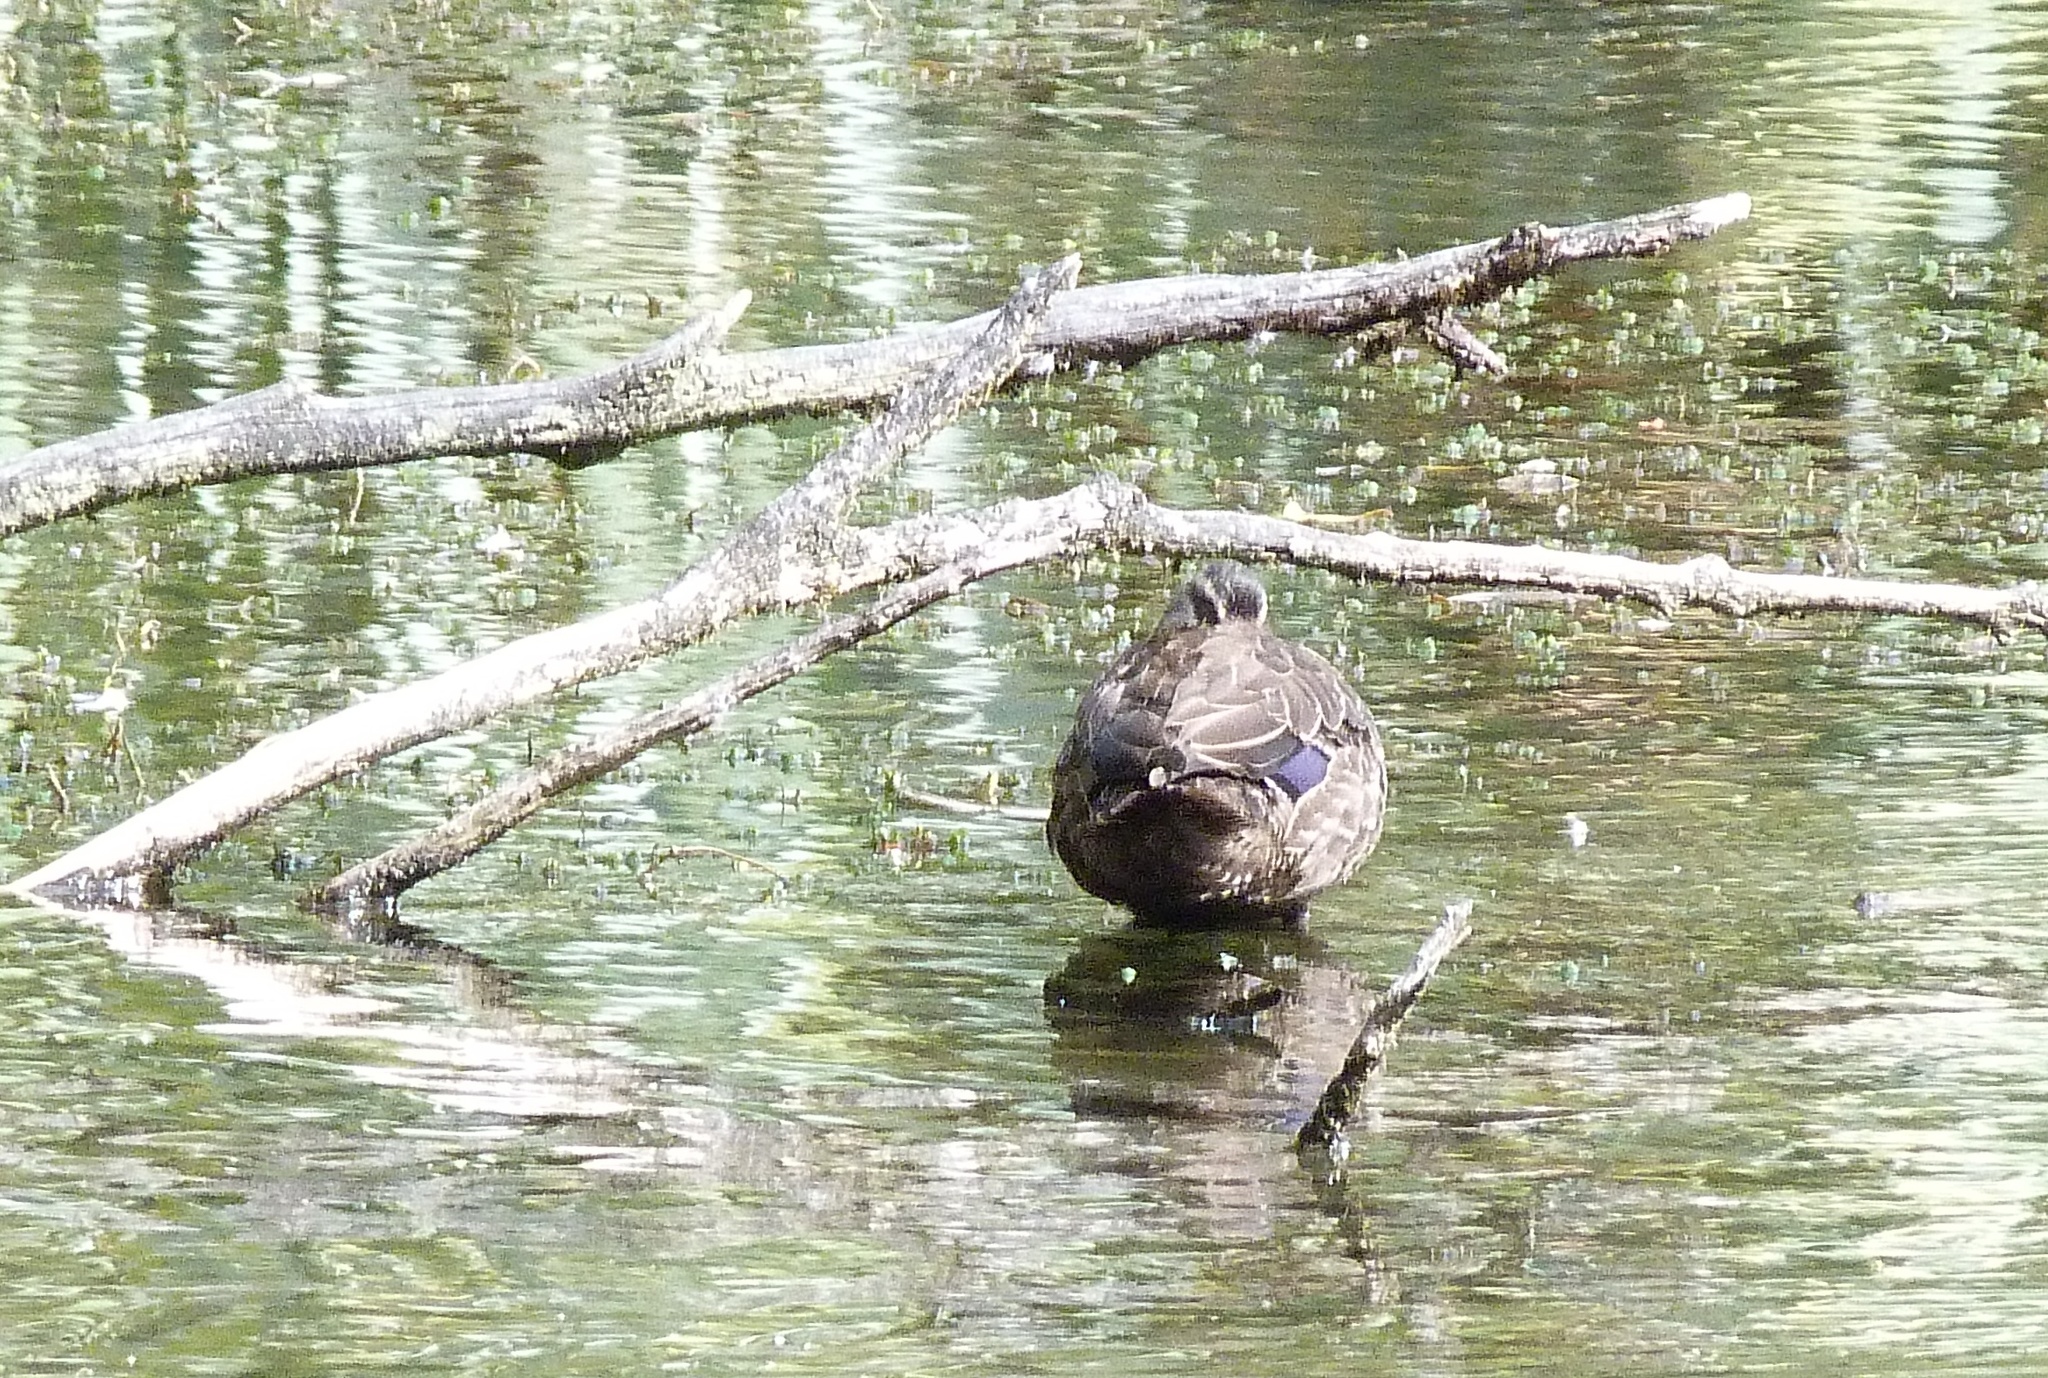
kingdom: Animalia
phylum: Chordata
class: Aves
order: Anseriformes
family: Anatidae
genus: Anas
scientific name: Anas platyrhynchos
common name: Mallard
